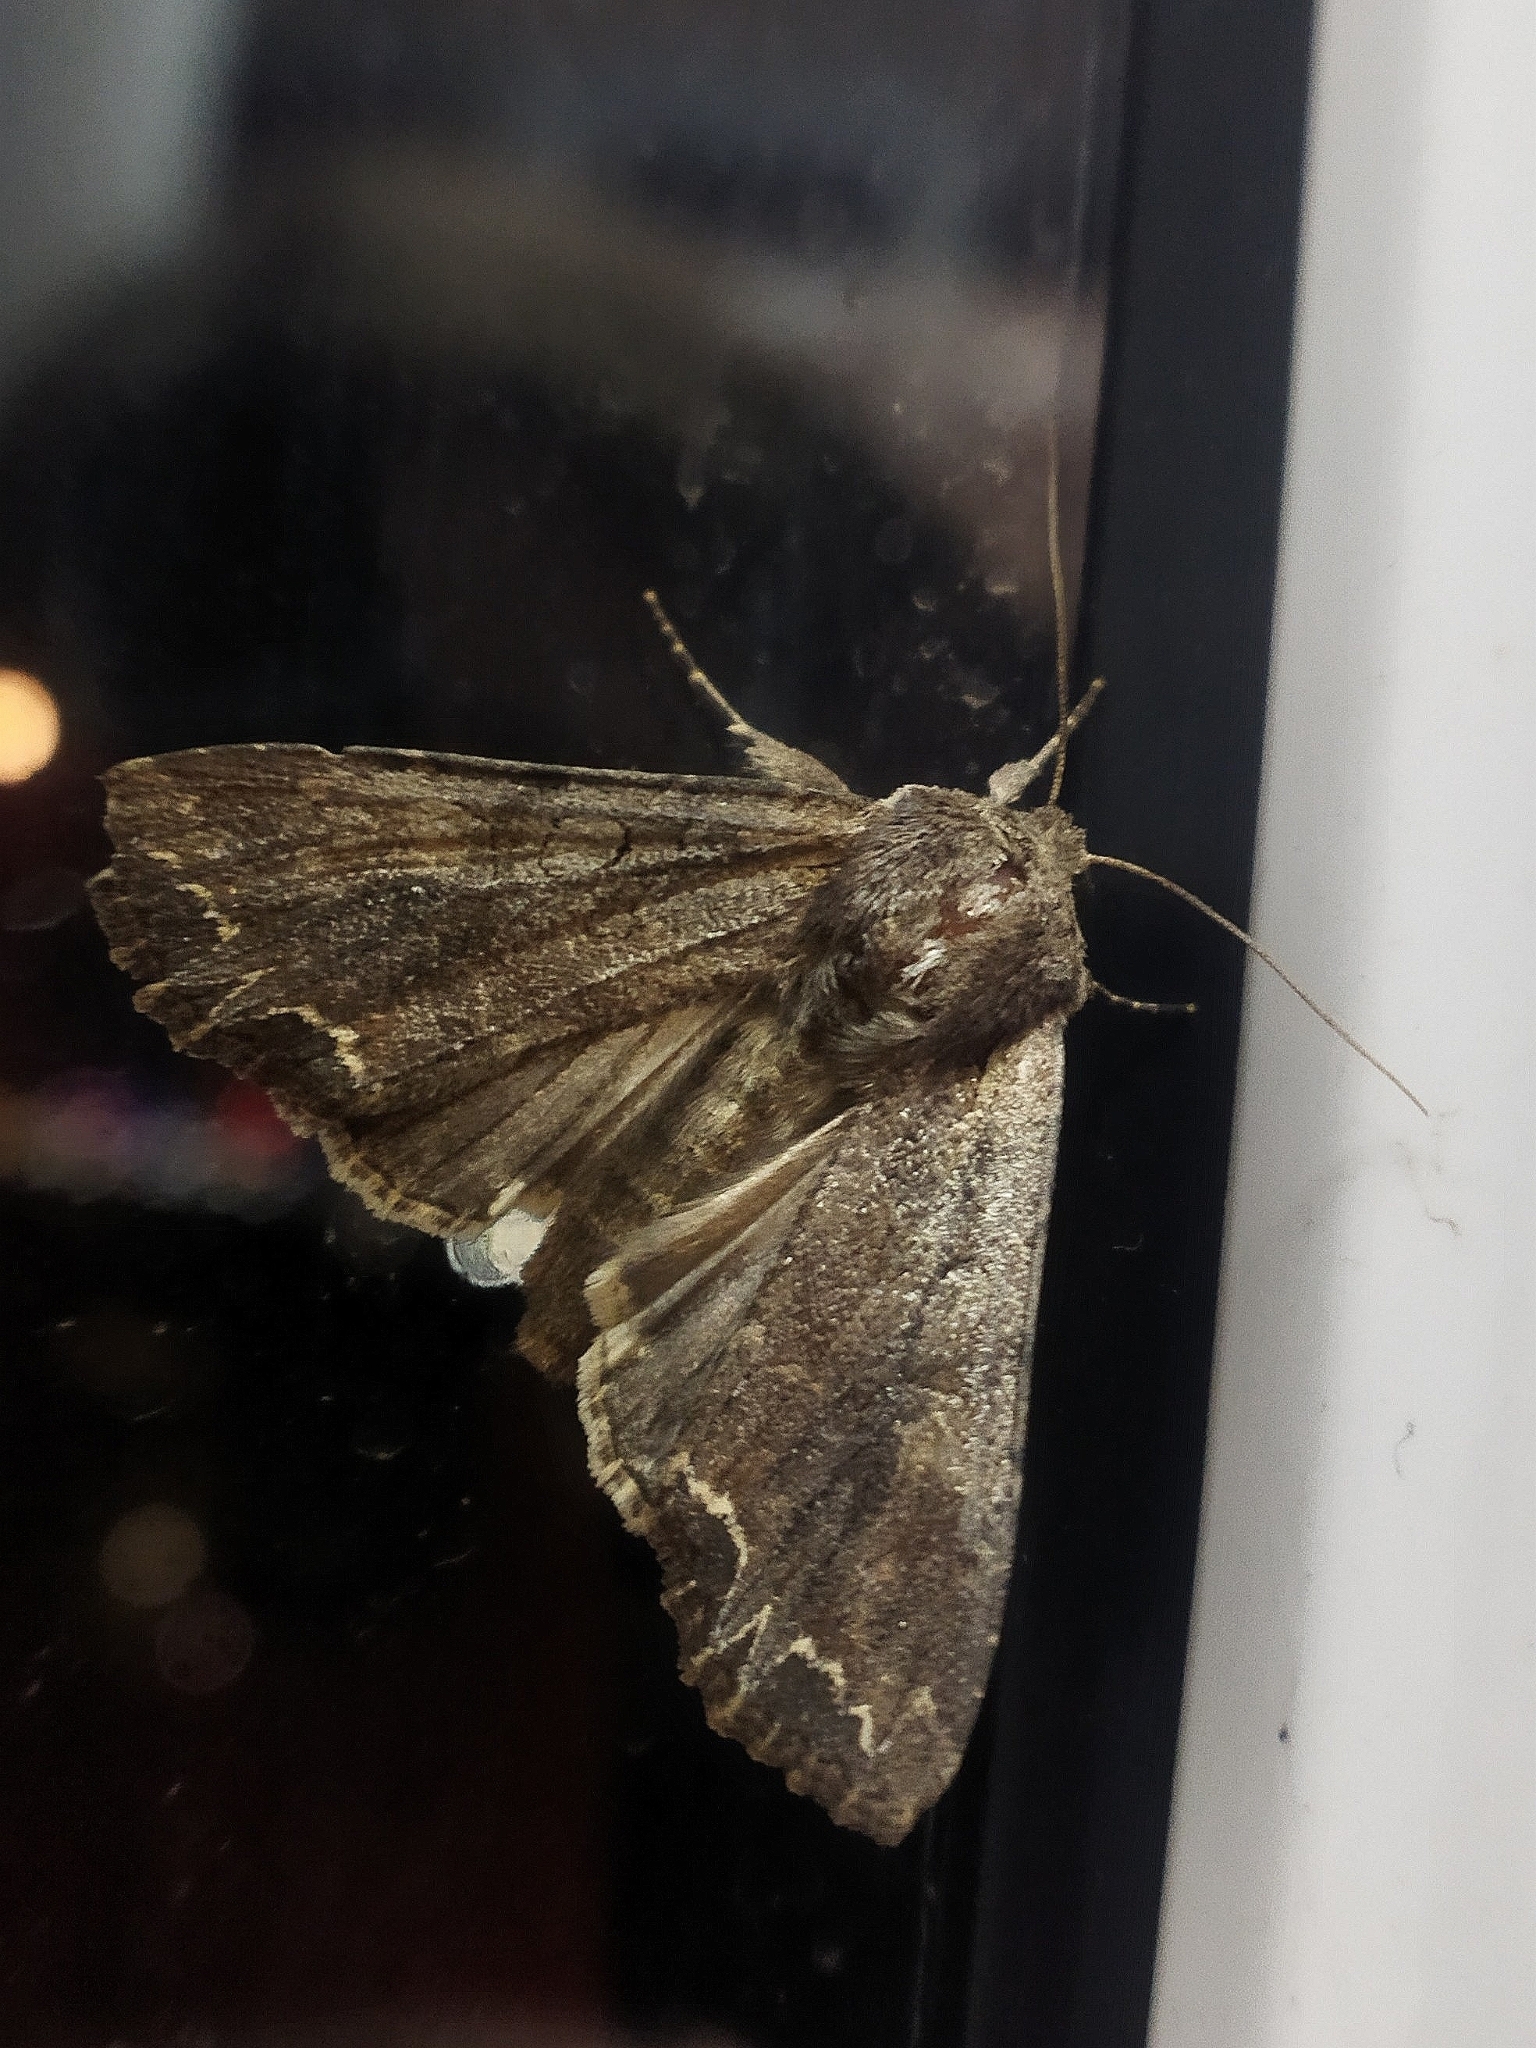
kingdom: Animalia
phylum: Arthropoda
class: Insecta
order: Lepidoptera
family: Noctuidae
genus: Lacanobia
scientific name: Lacanobia suasa
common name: Dog's tooth
